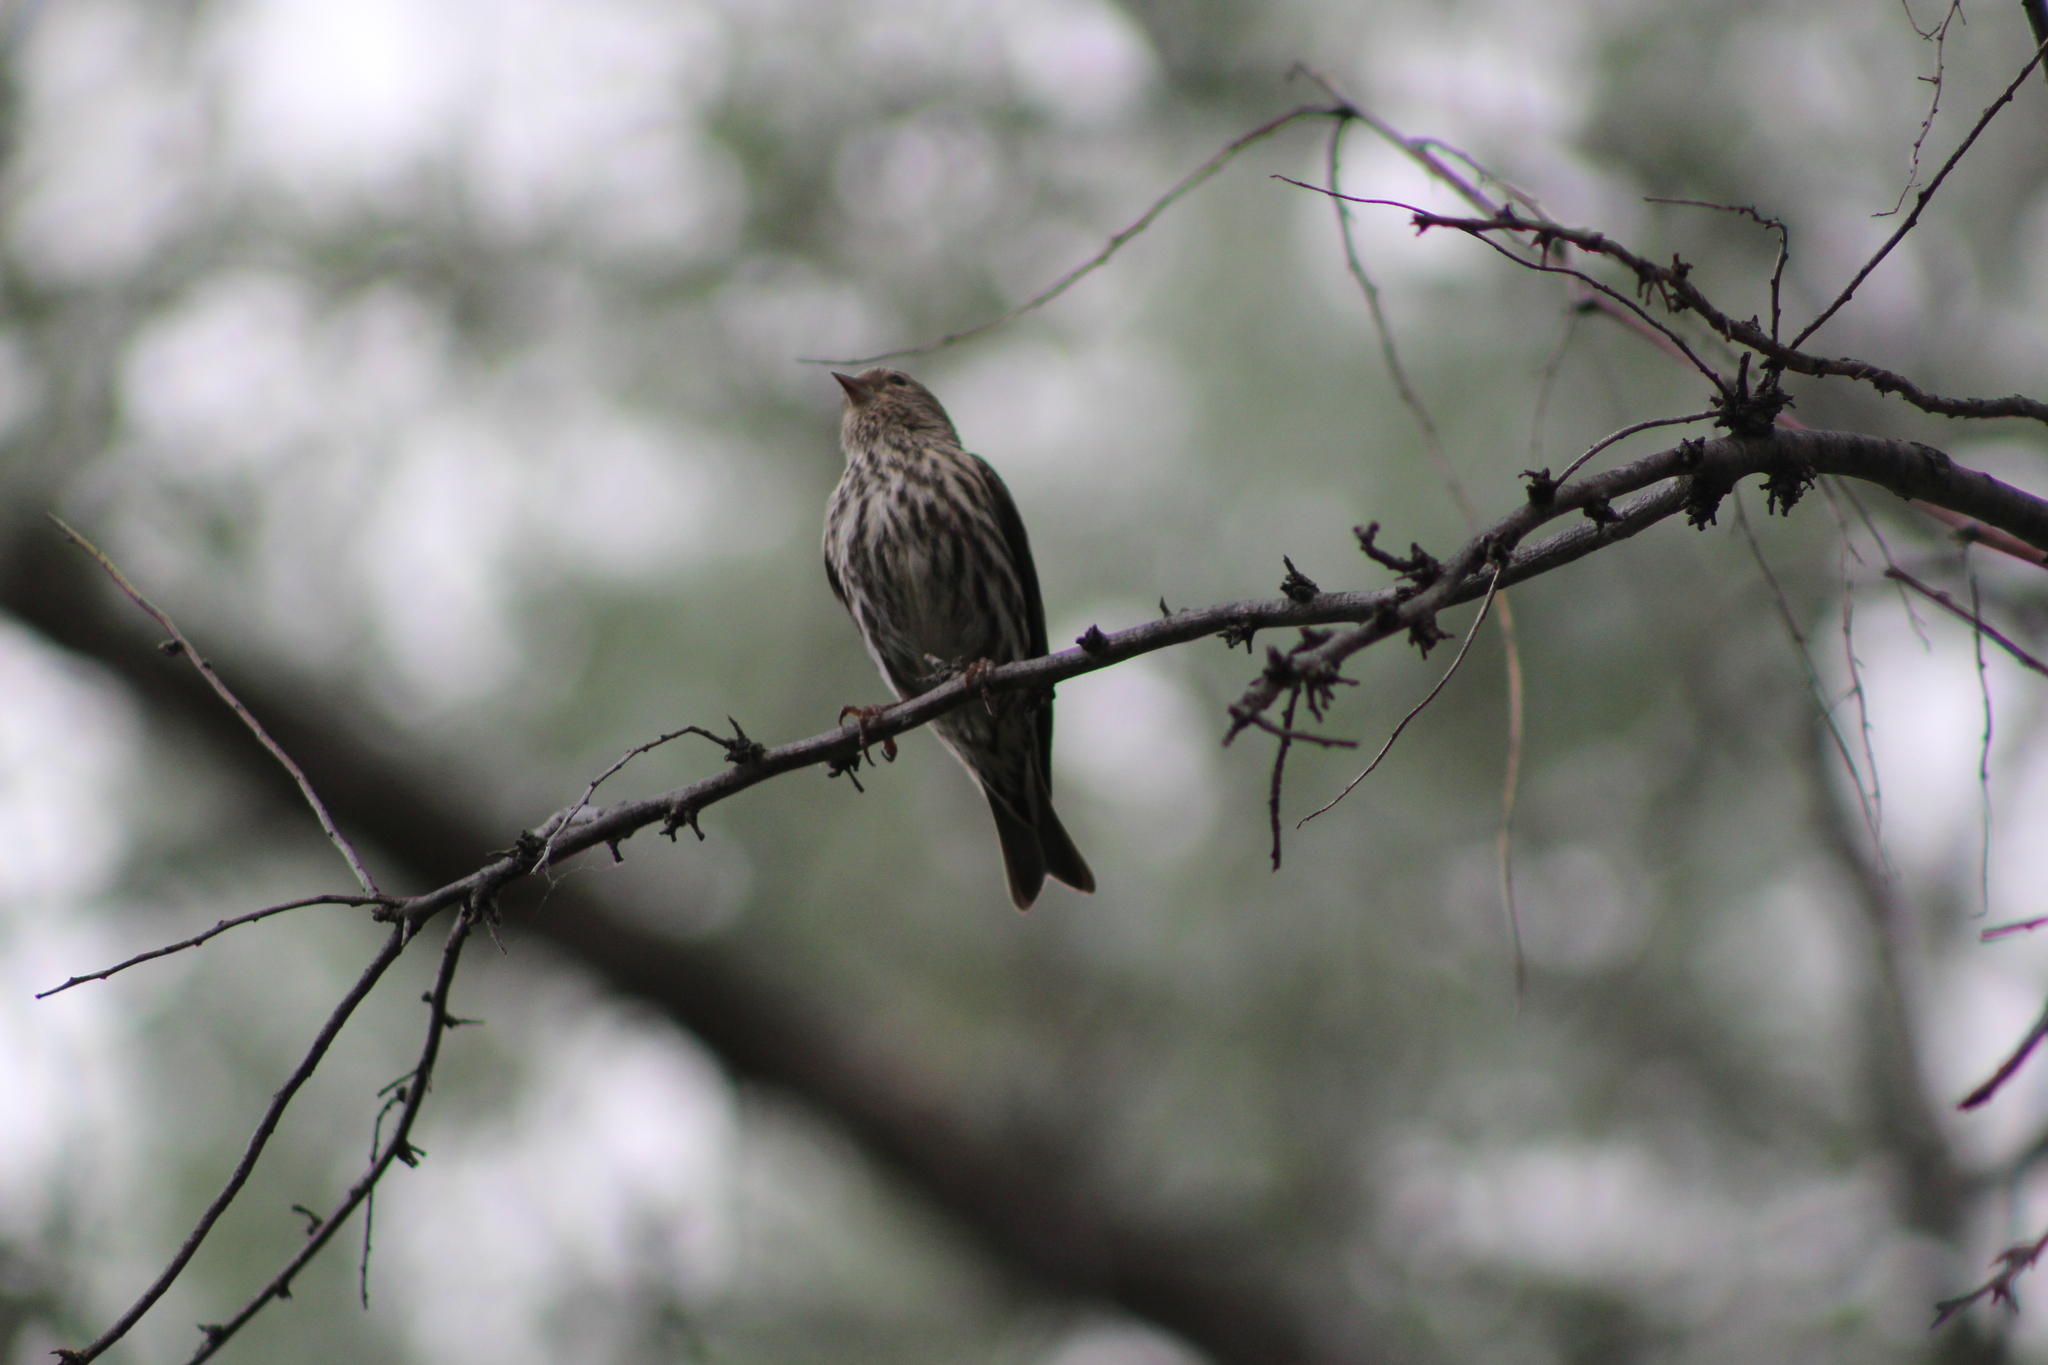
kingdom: Animalia
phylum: Chordata
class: Aves
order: Passeriformes
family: Fringillidae
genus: Spinus
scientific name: Spinus pinus
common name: Pine siskin
